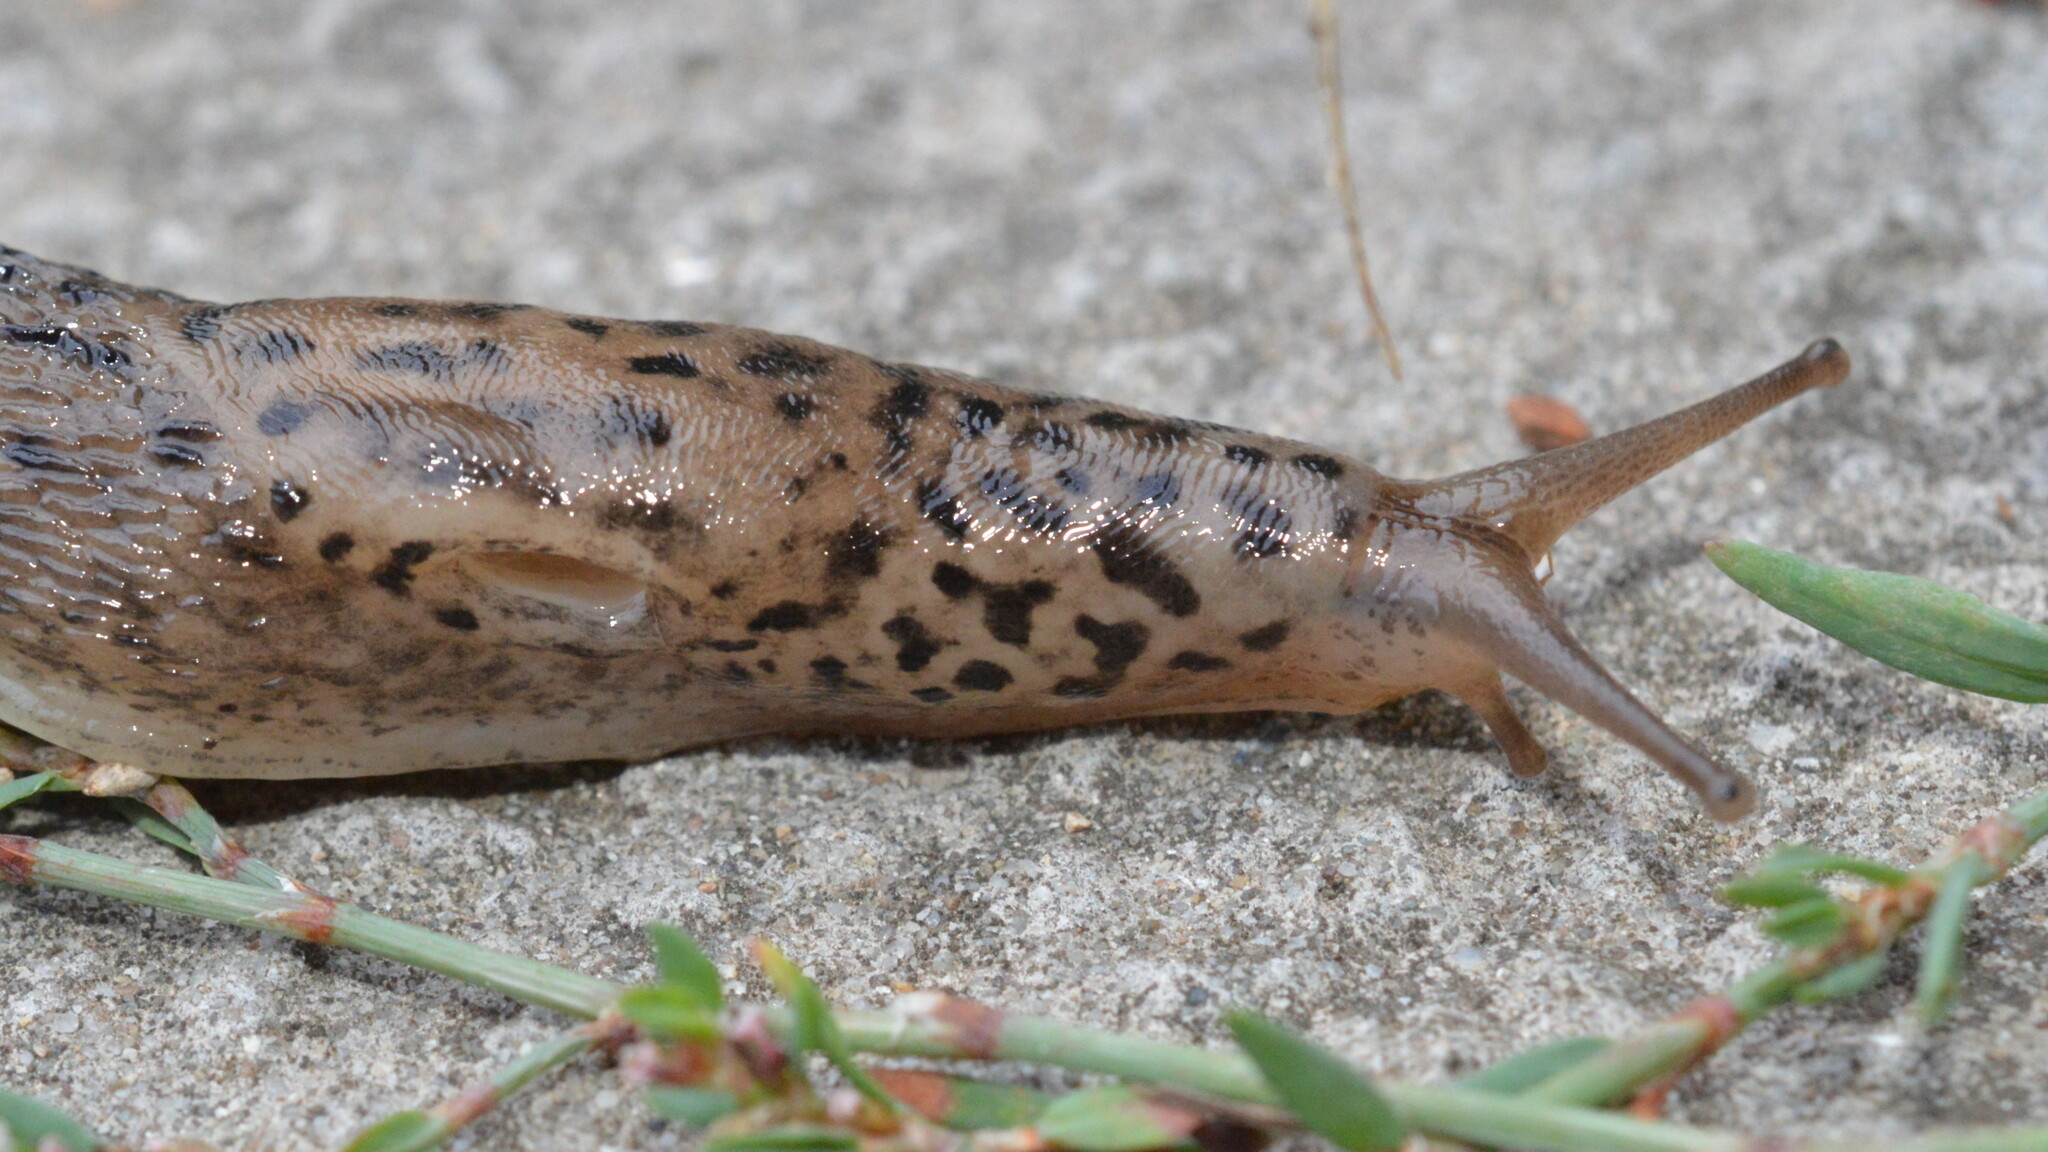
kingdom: Animalia
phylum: Mollusca
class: Gastropoda
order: Stylommatophora
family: Limacidae
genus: Limax
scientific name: Limax maximus
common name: Great grey slug
